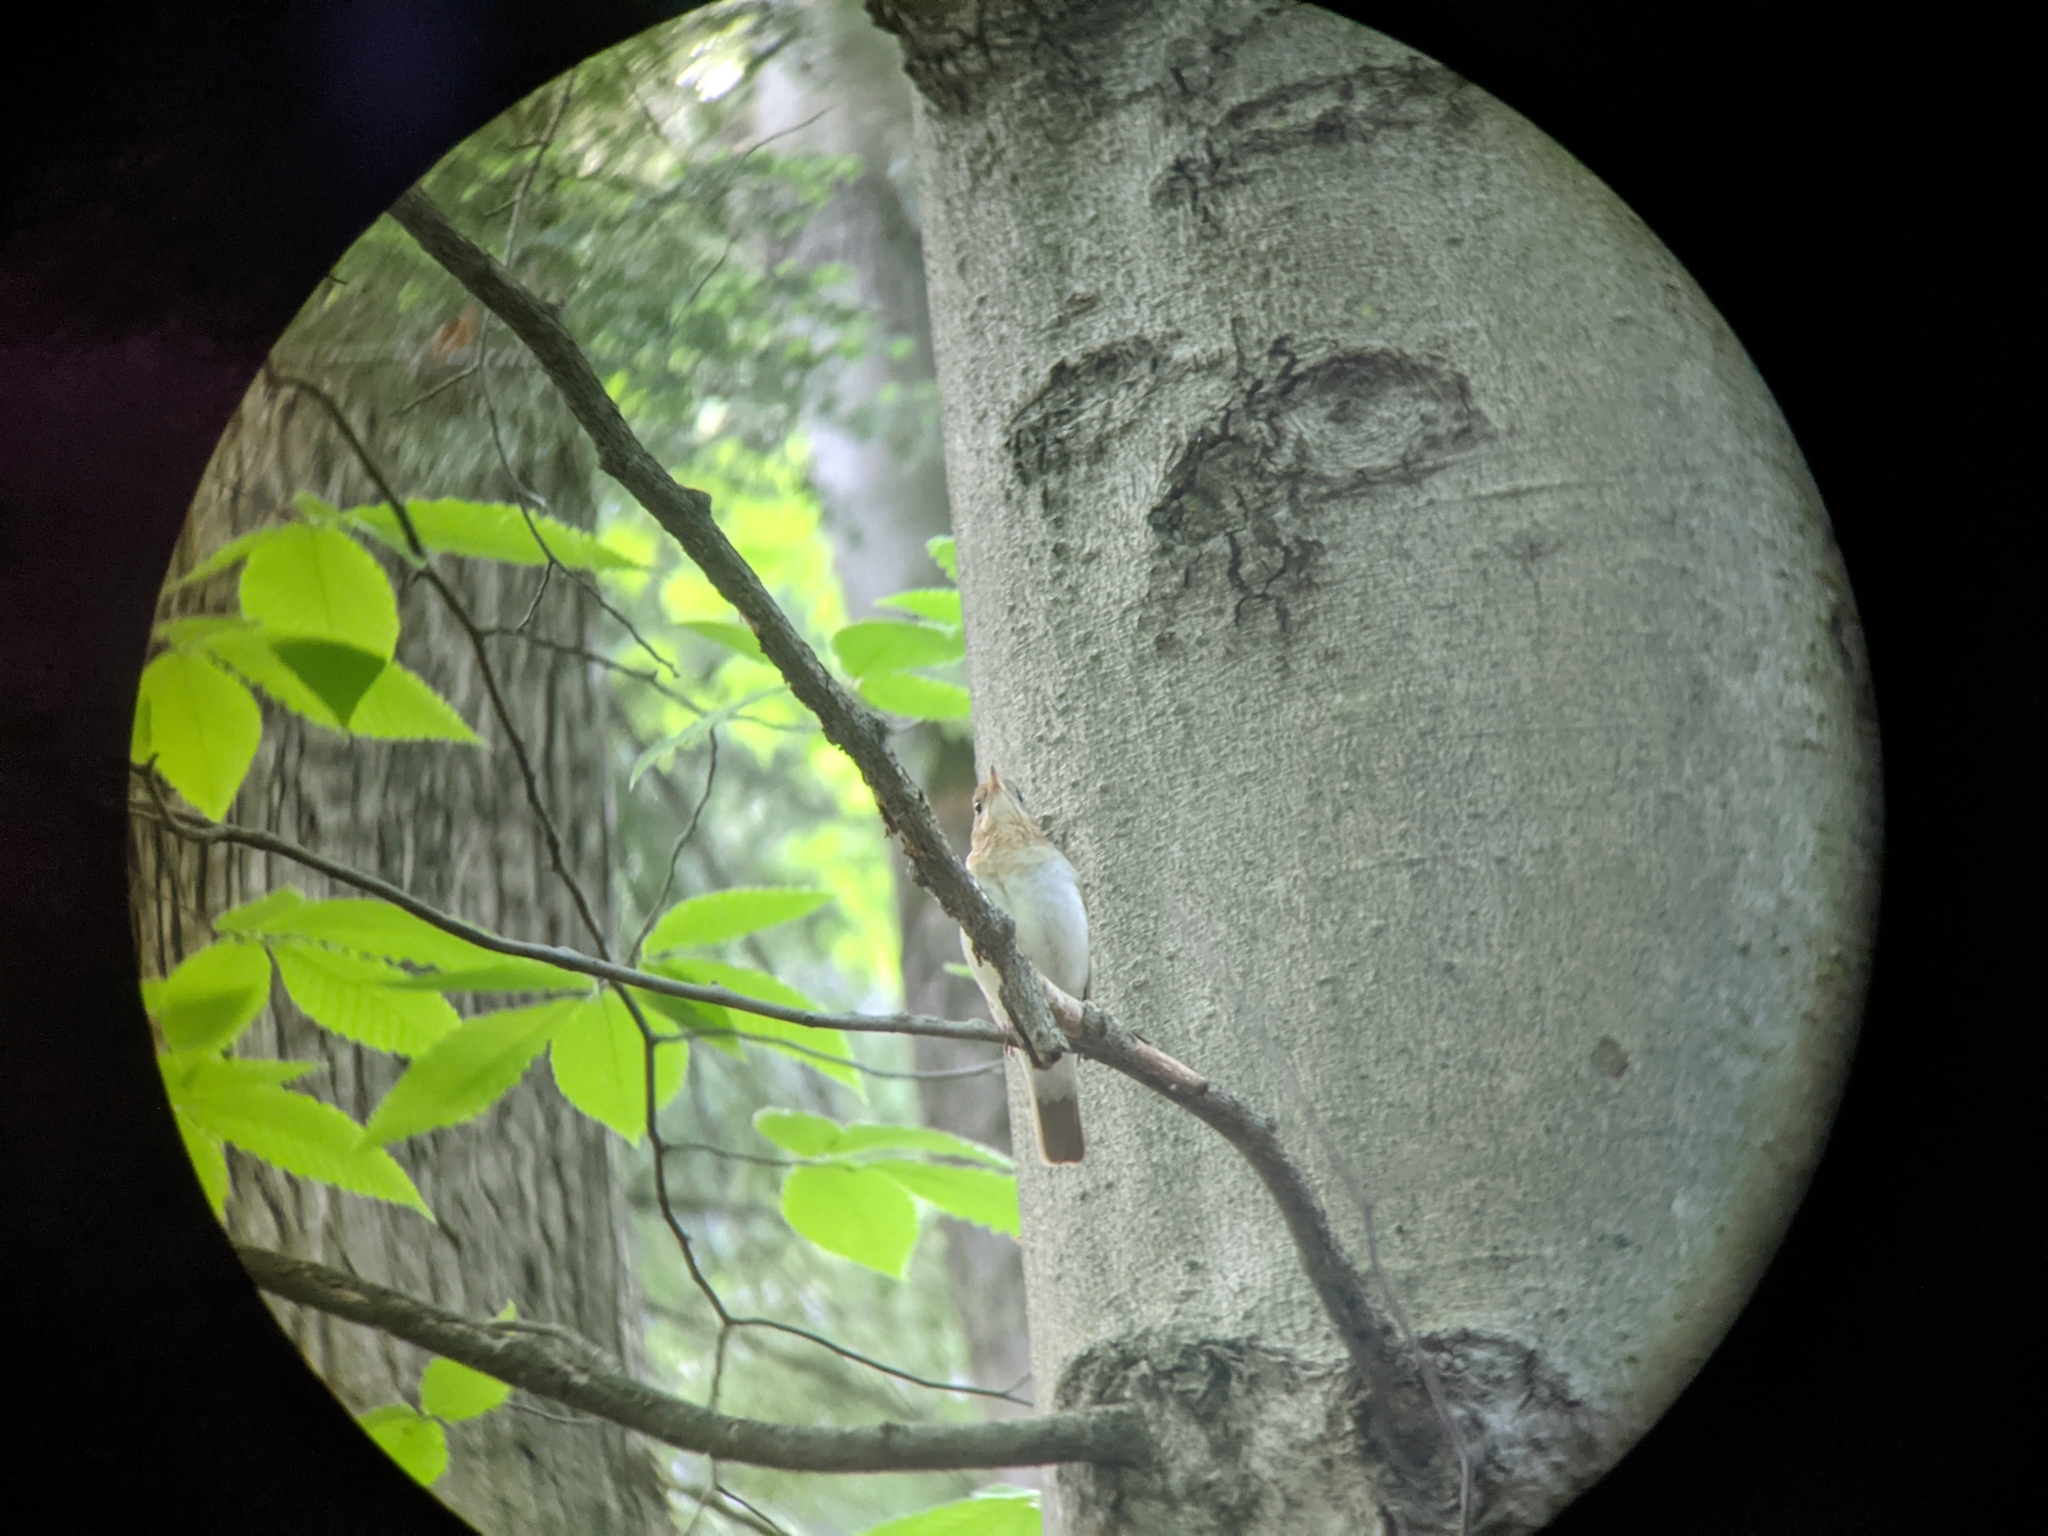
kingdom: Animalia
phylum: Chordata
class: Aves
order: Passeriformes
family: Turdidae
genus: Catharus
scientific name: Catharus fuscescens
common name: Veery
